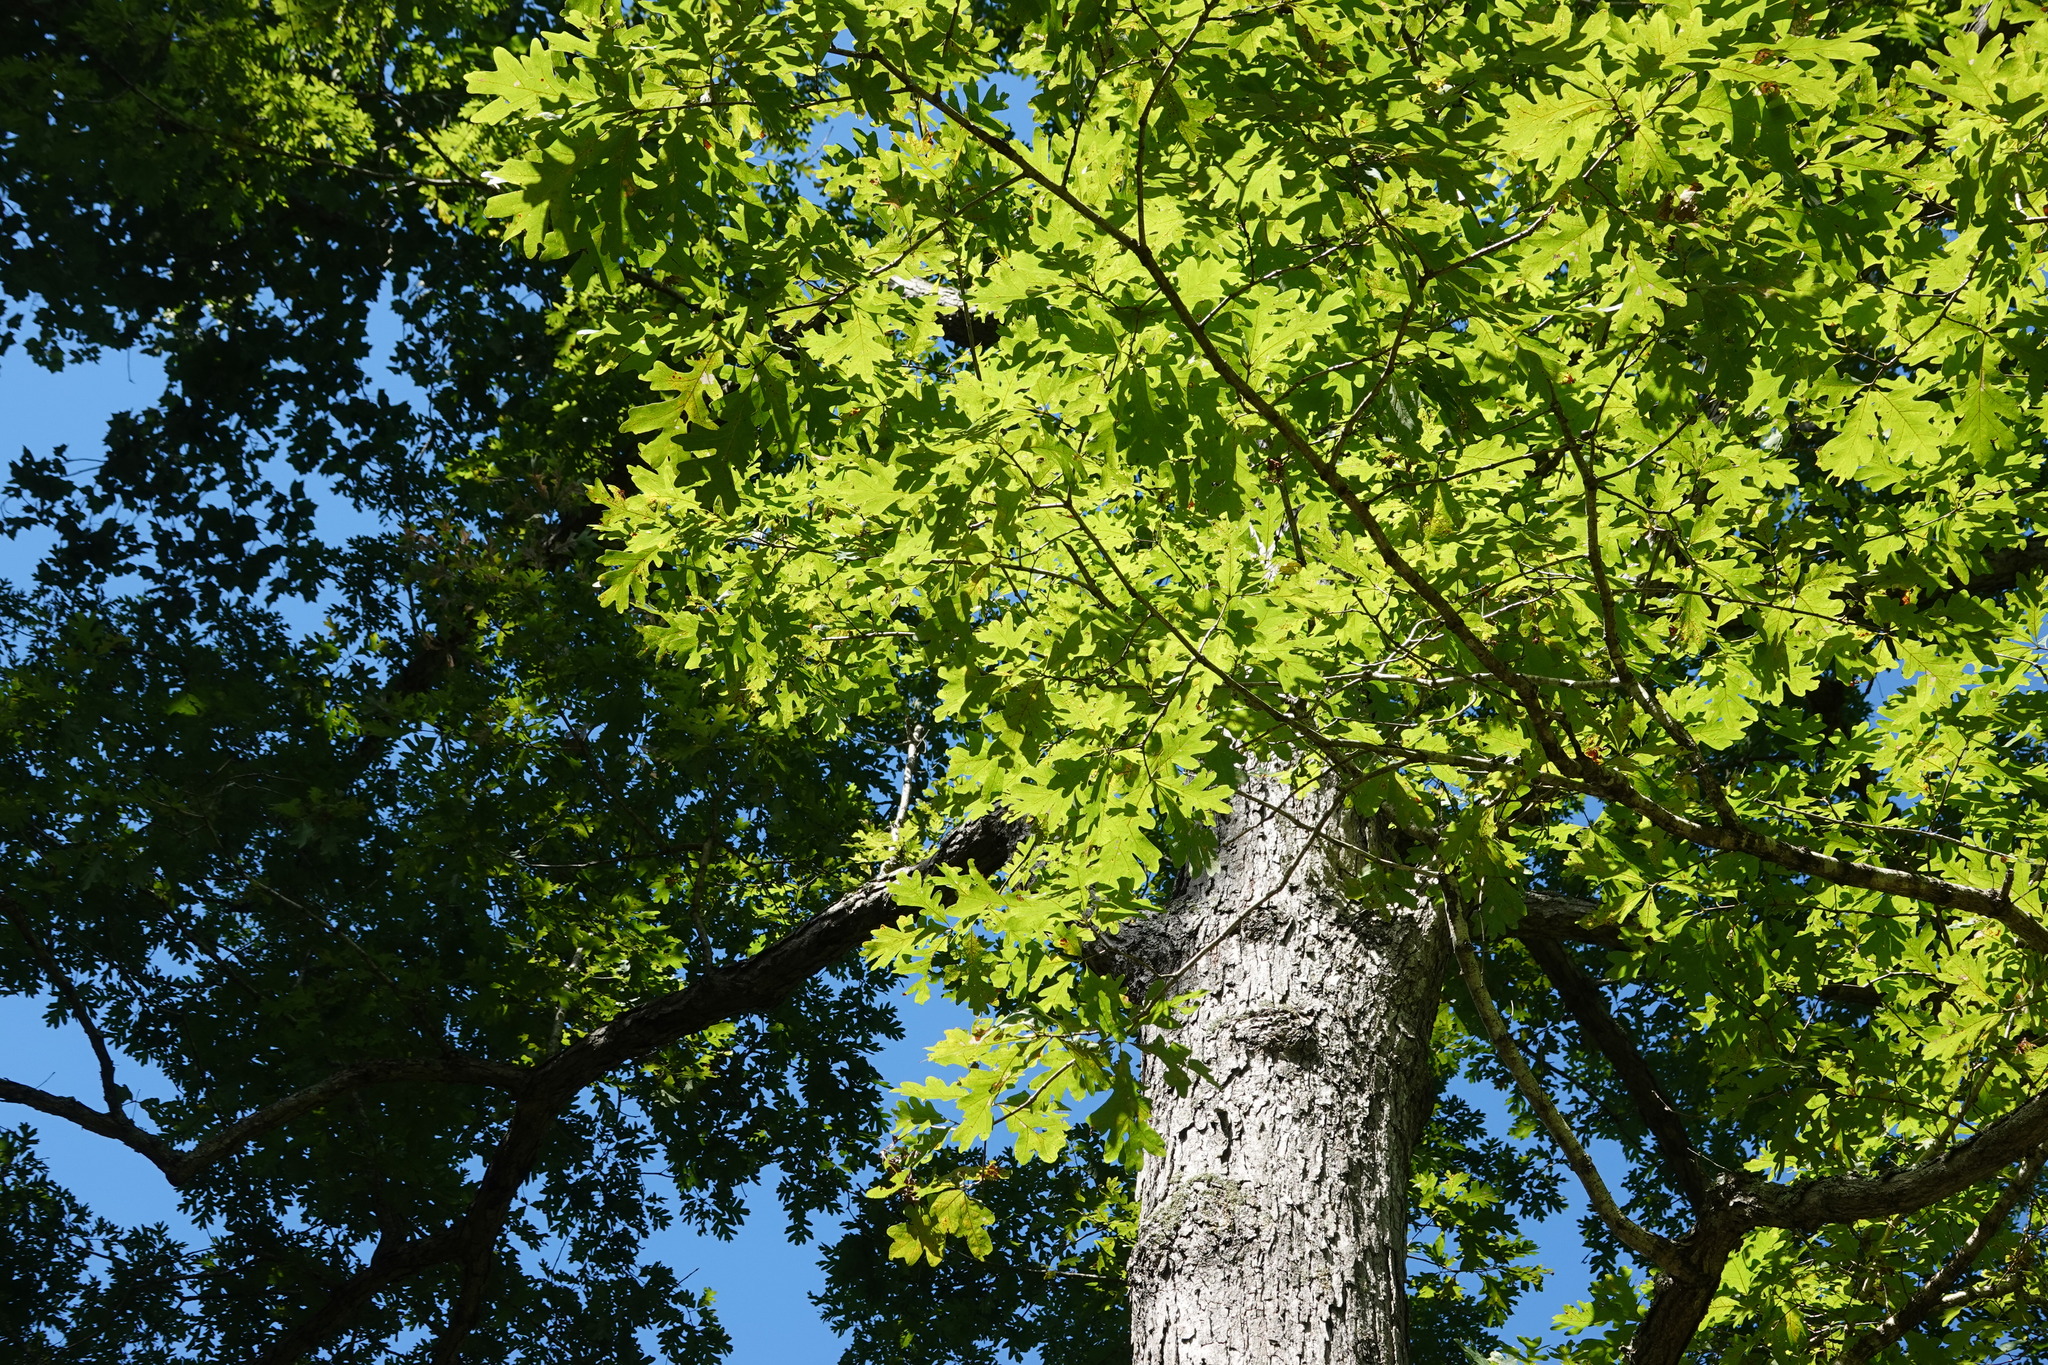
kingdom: Plantae
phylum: Tracheophyta
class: Magnoliopsida
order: Fagales
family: Fagaceae
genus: Quercus
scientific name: Quercus alba
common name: White oak
